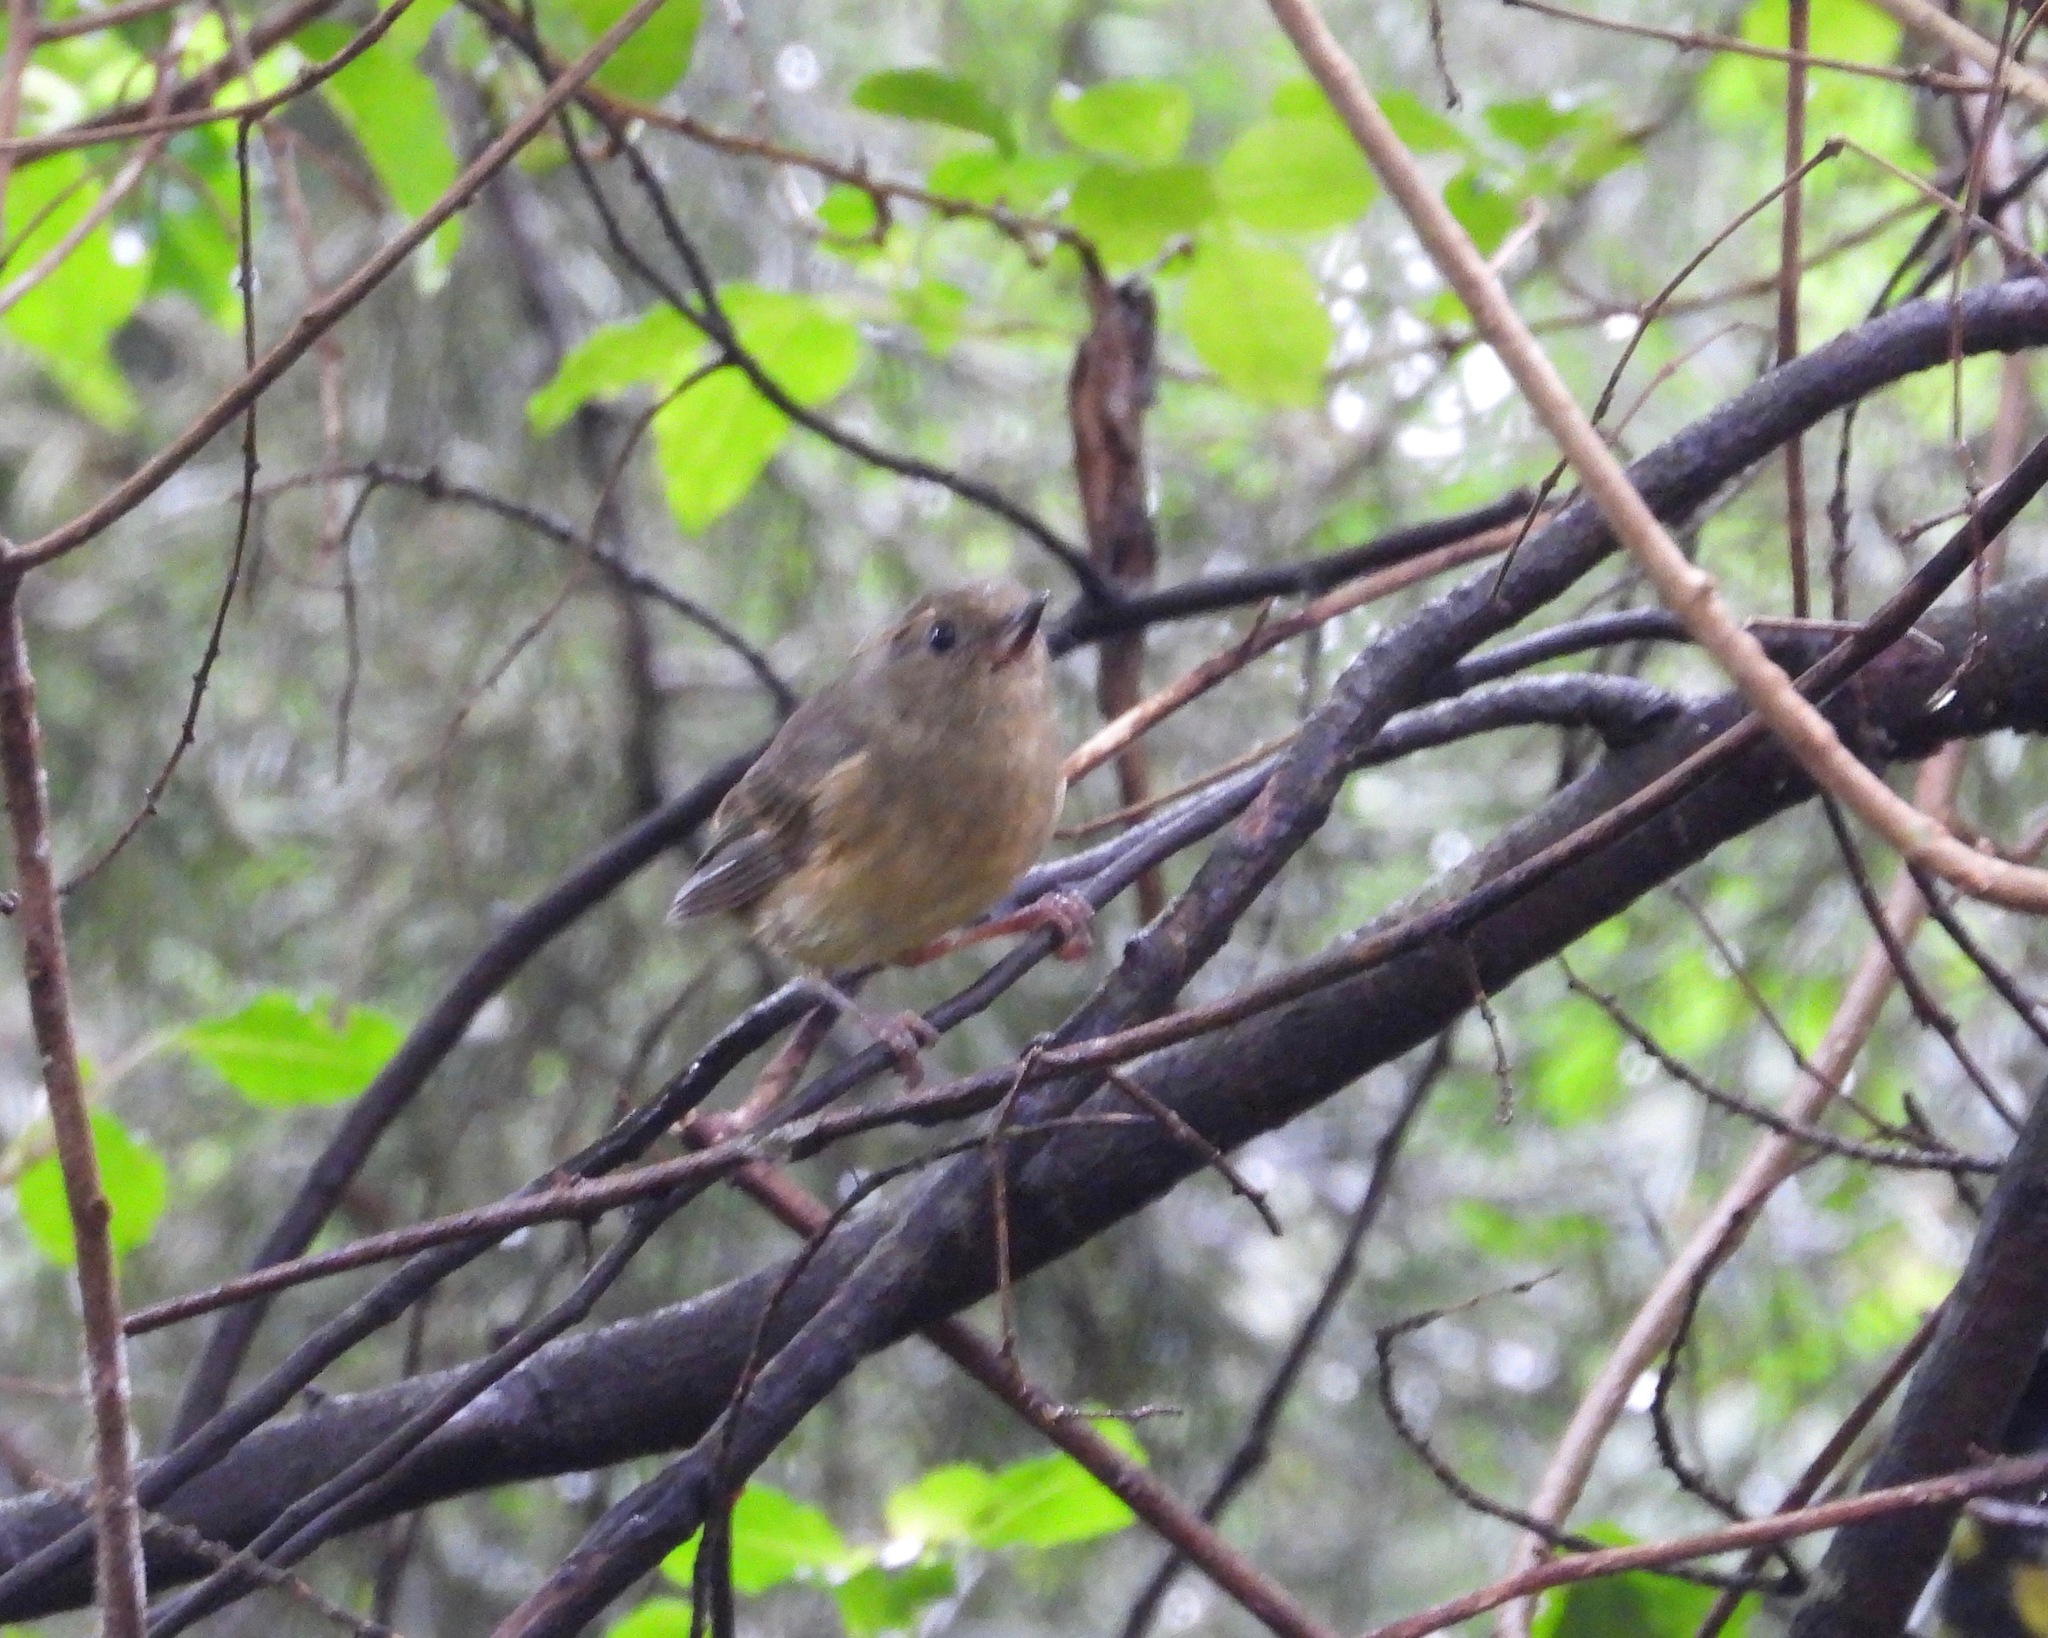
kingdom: Animalia
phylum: Chordata
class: Aves
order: Passeriformes
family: Thraupidae
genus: Diglossa
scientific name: Diglossa baritula
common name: Cinnamon-bellied flowerpiercer
